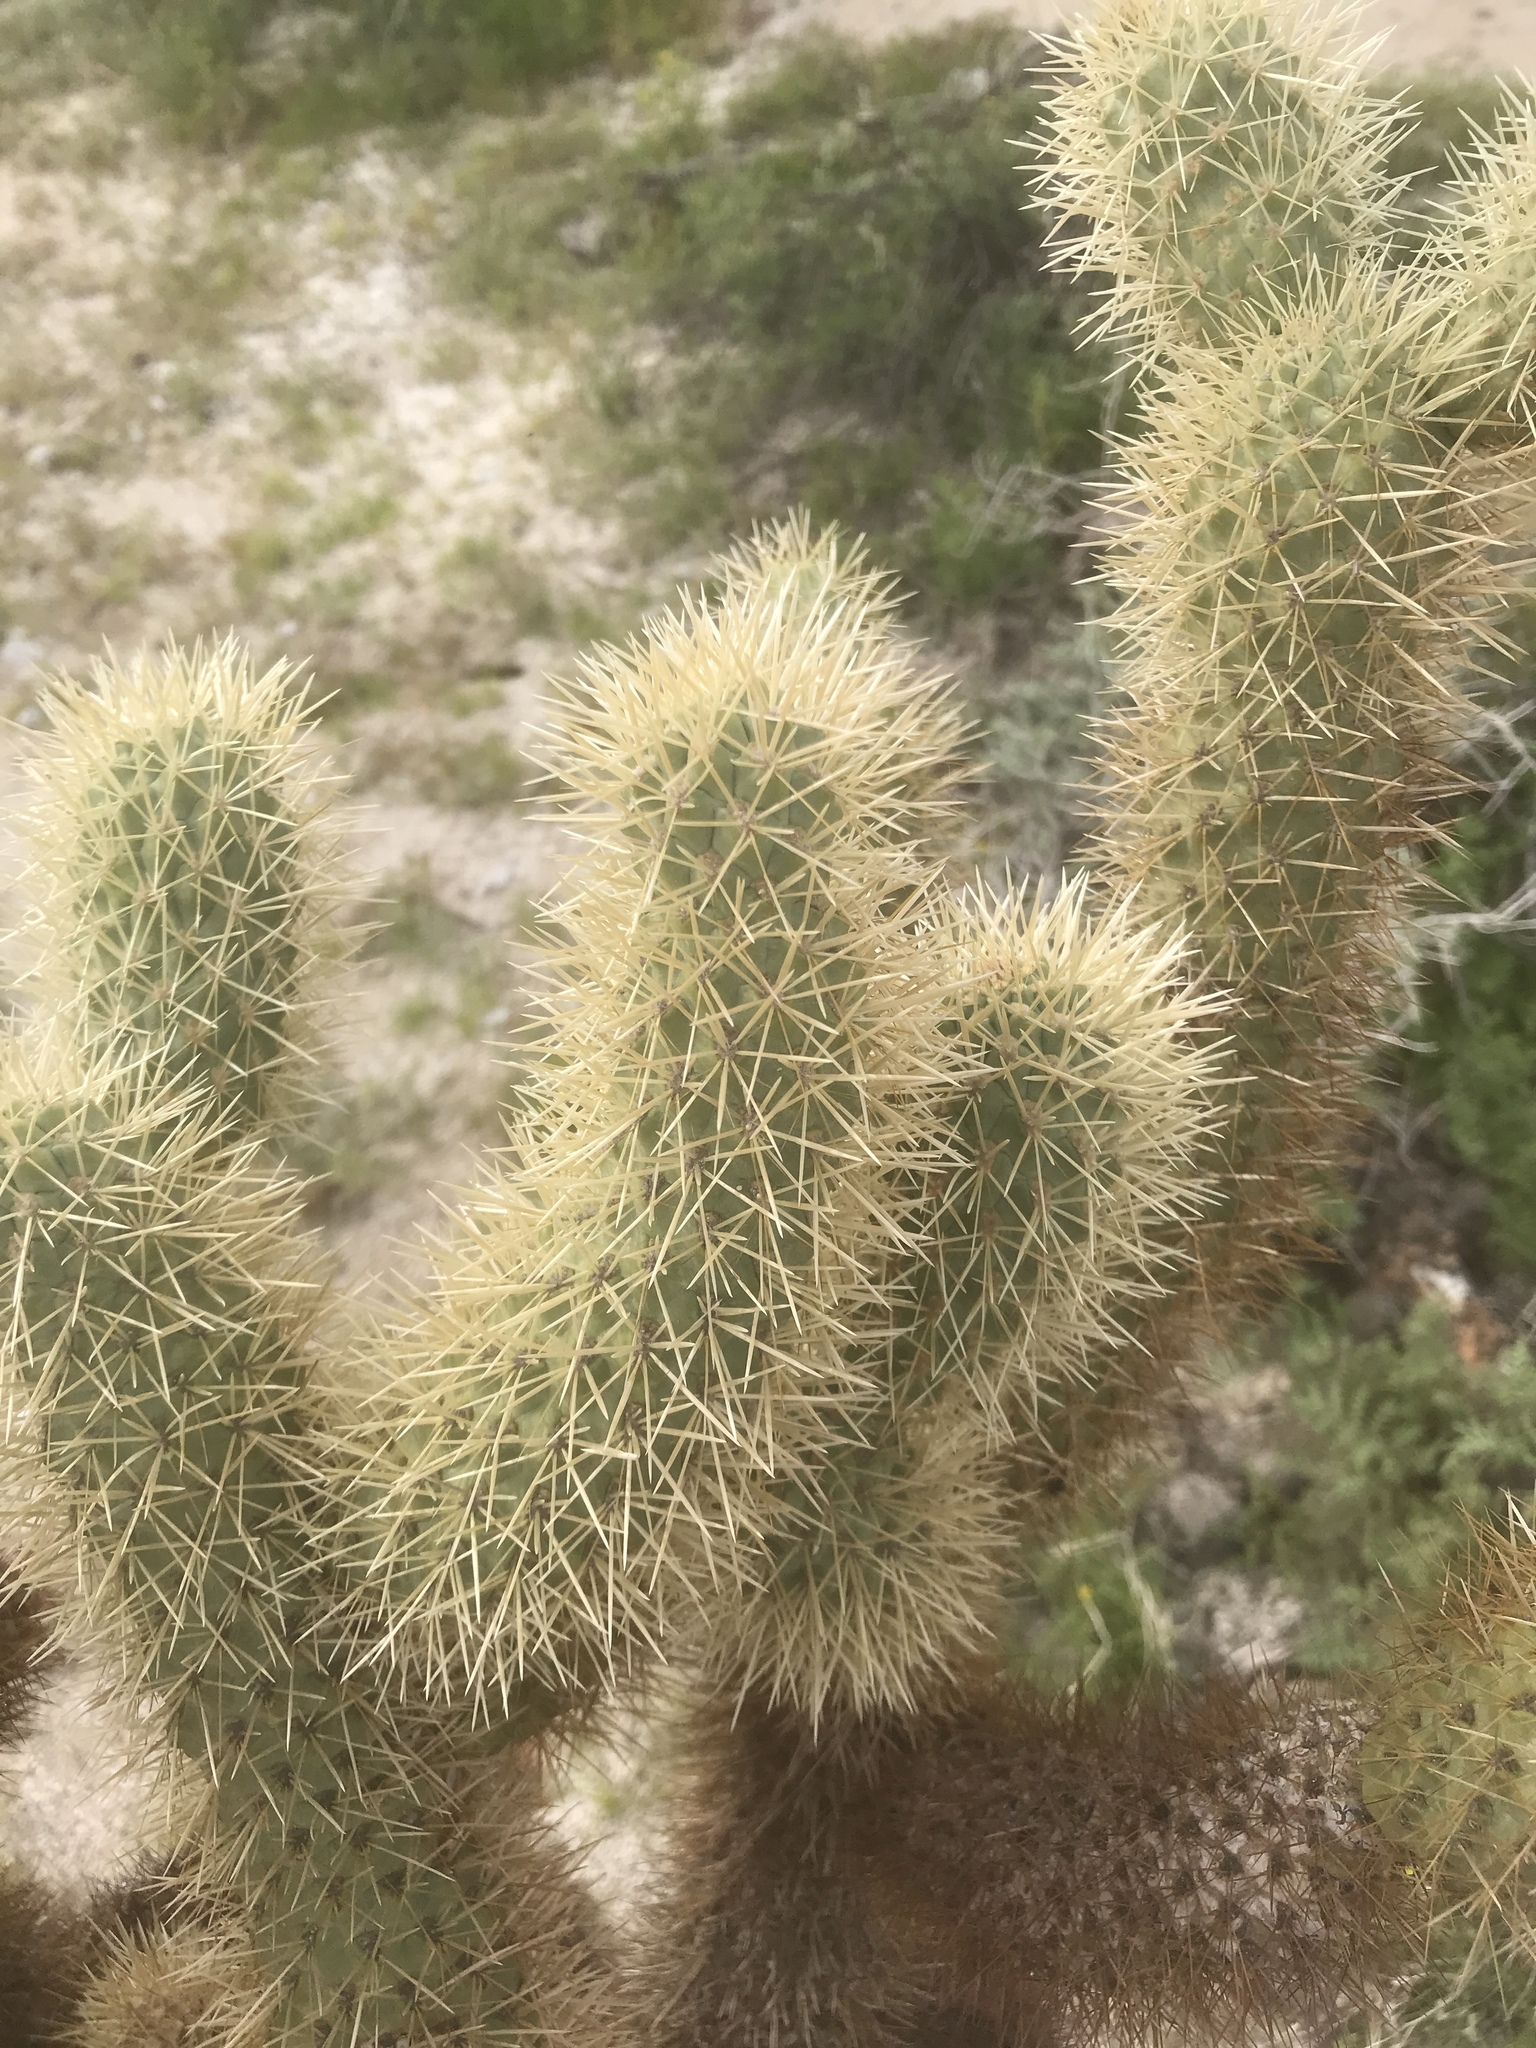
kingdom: Plantae
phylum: Tracheophyta
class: Magnoliopsida
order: Caryophyllales
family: Cactaceae
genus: Cylindropuntia
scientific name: Cylindropuntia fosbergii
